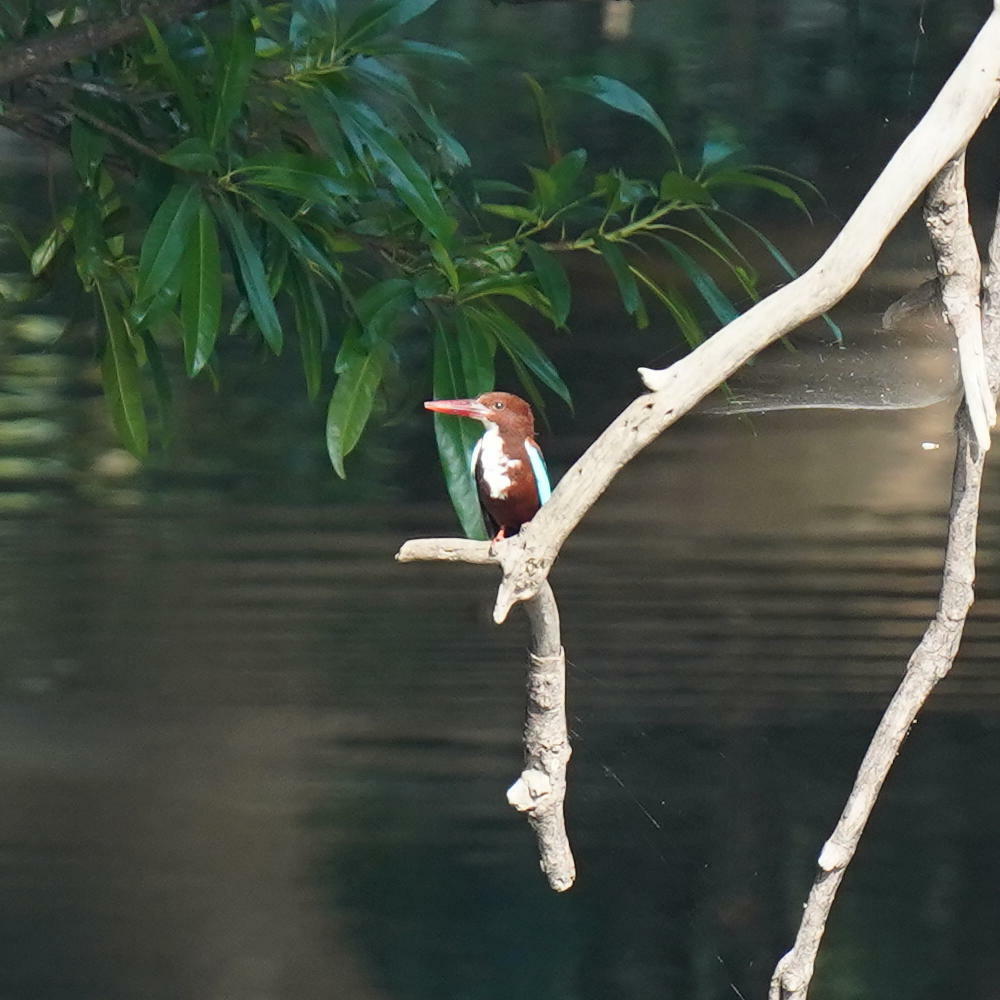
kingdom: Animalia
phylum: Chordata
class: Aves
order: Coraciiformes
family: Alcedinidae
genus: Halcyon
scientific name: Halcyon smyrnensis
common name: White-throated kingfisher
